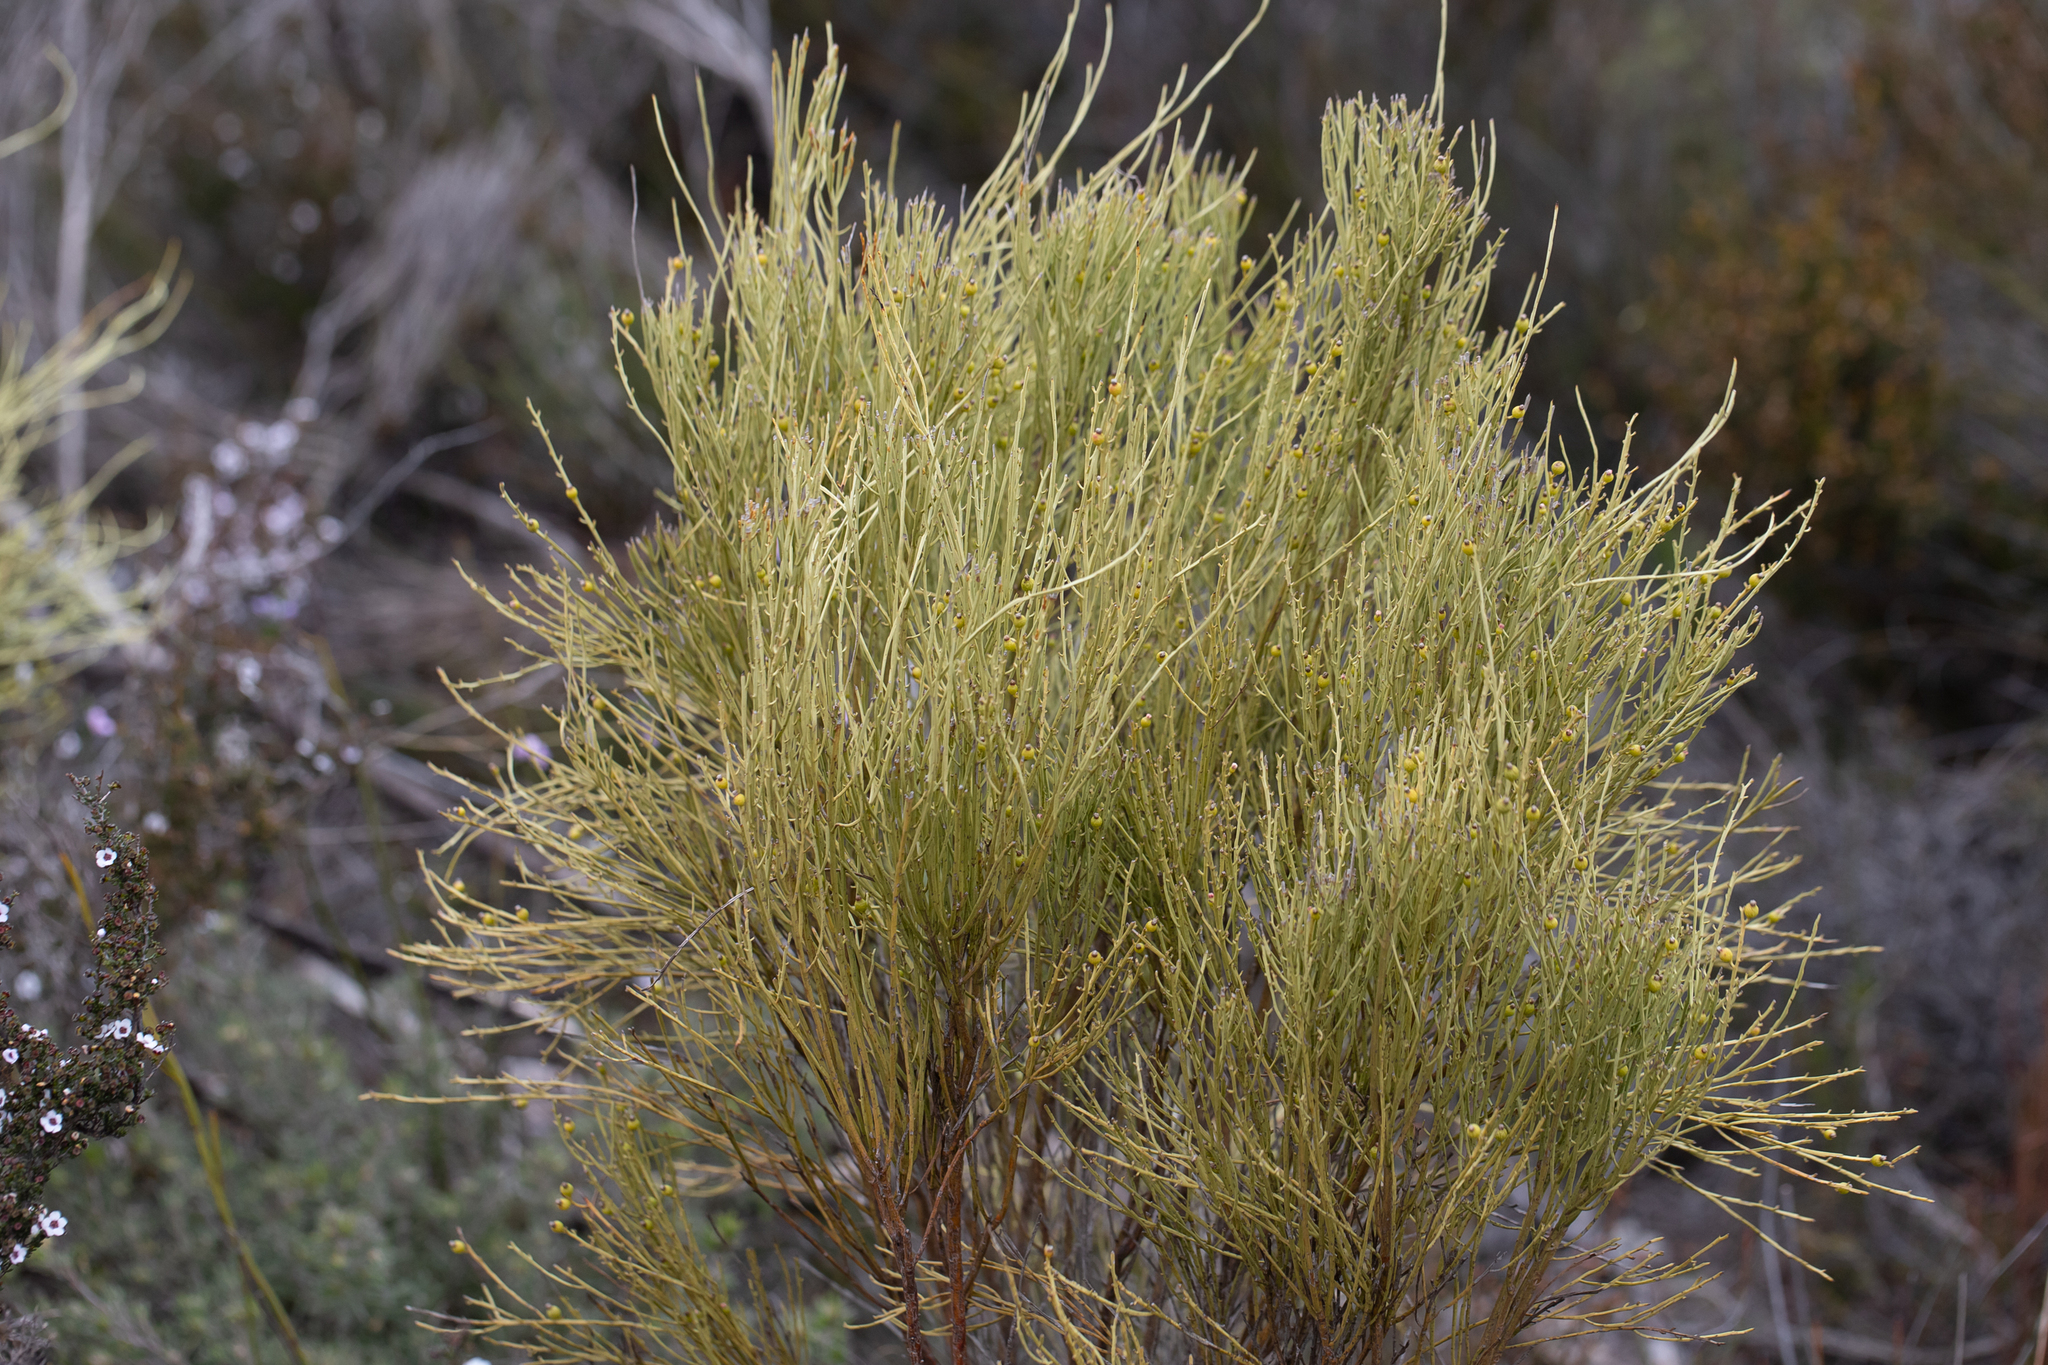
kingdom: Plantae
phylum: Tracheophyta
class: Magnoliopsida
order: Santalales
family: Amphorogynaceae
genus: Choretrum
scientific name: Choretrum glomeratum
